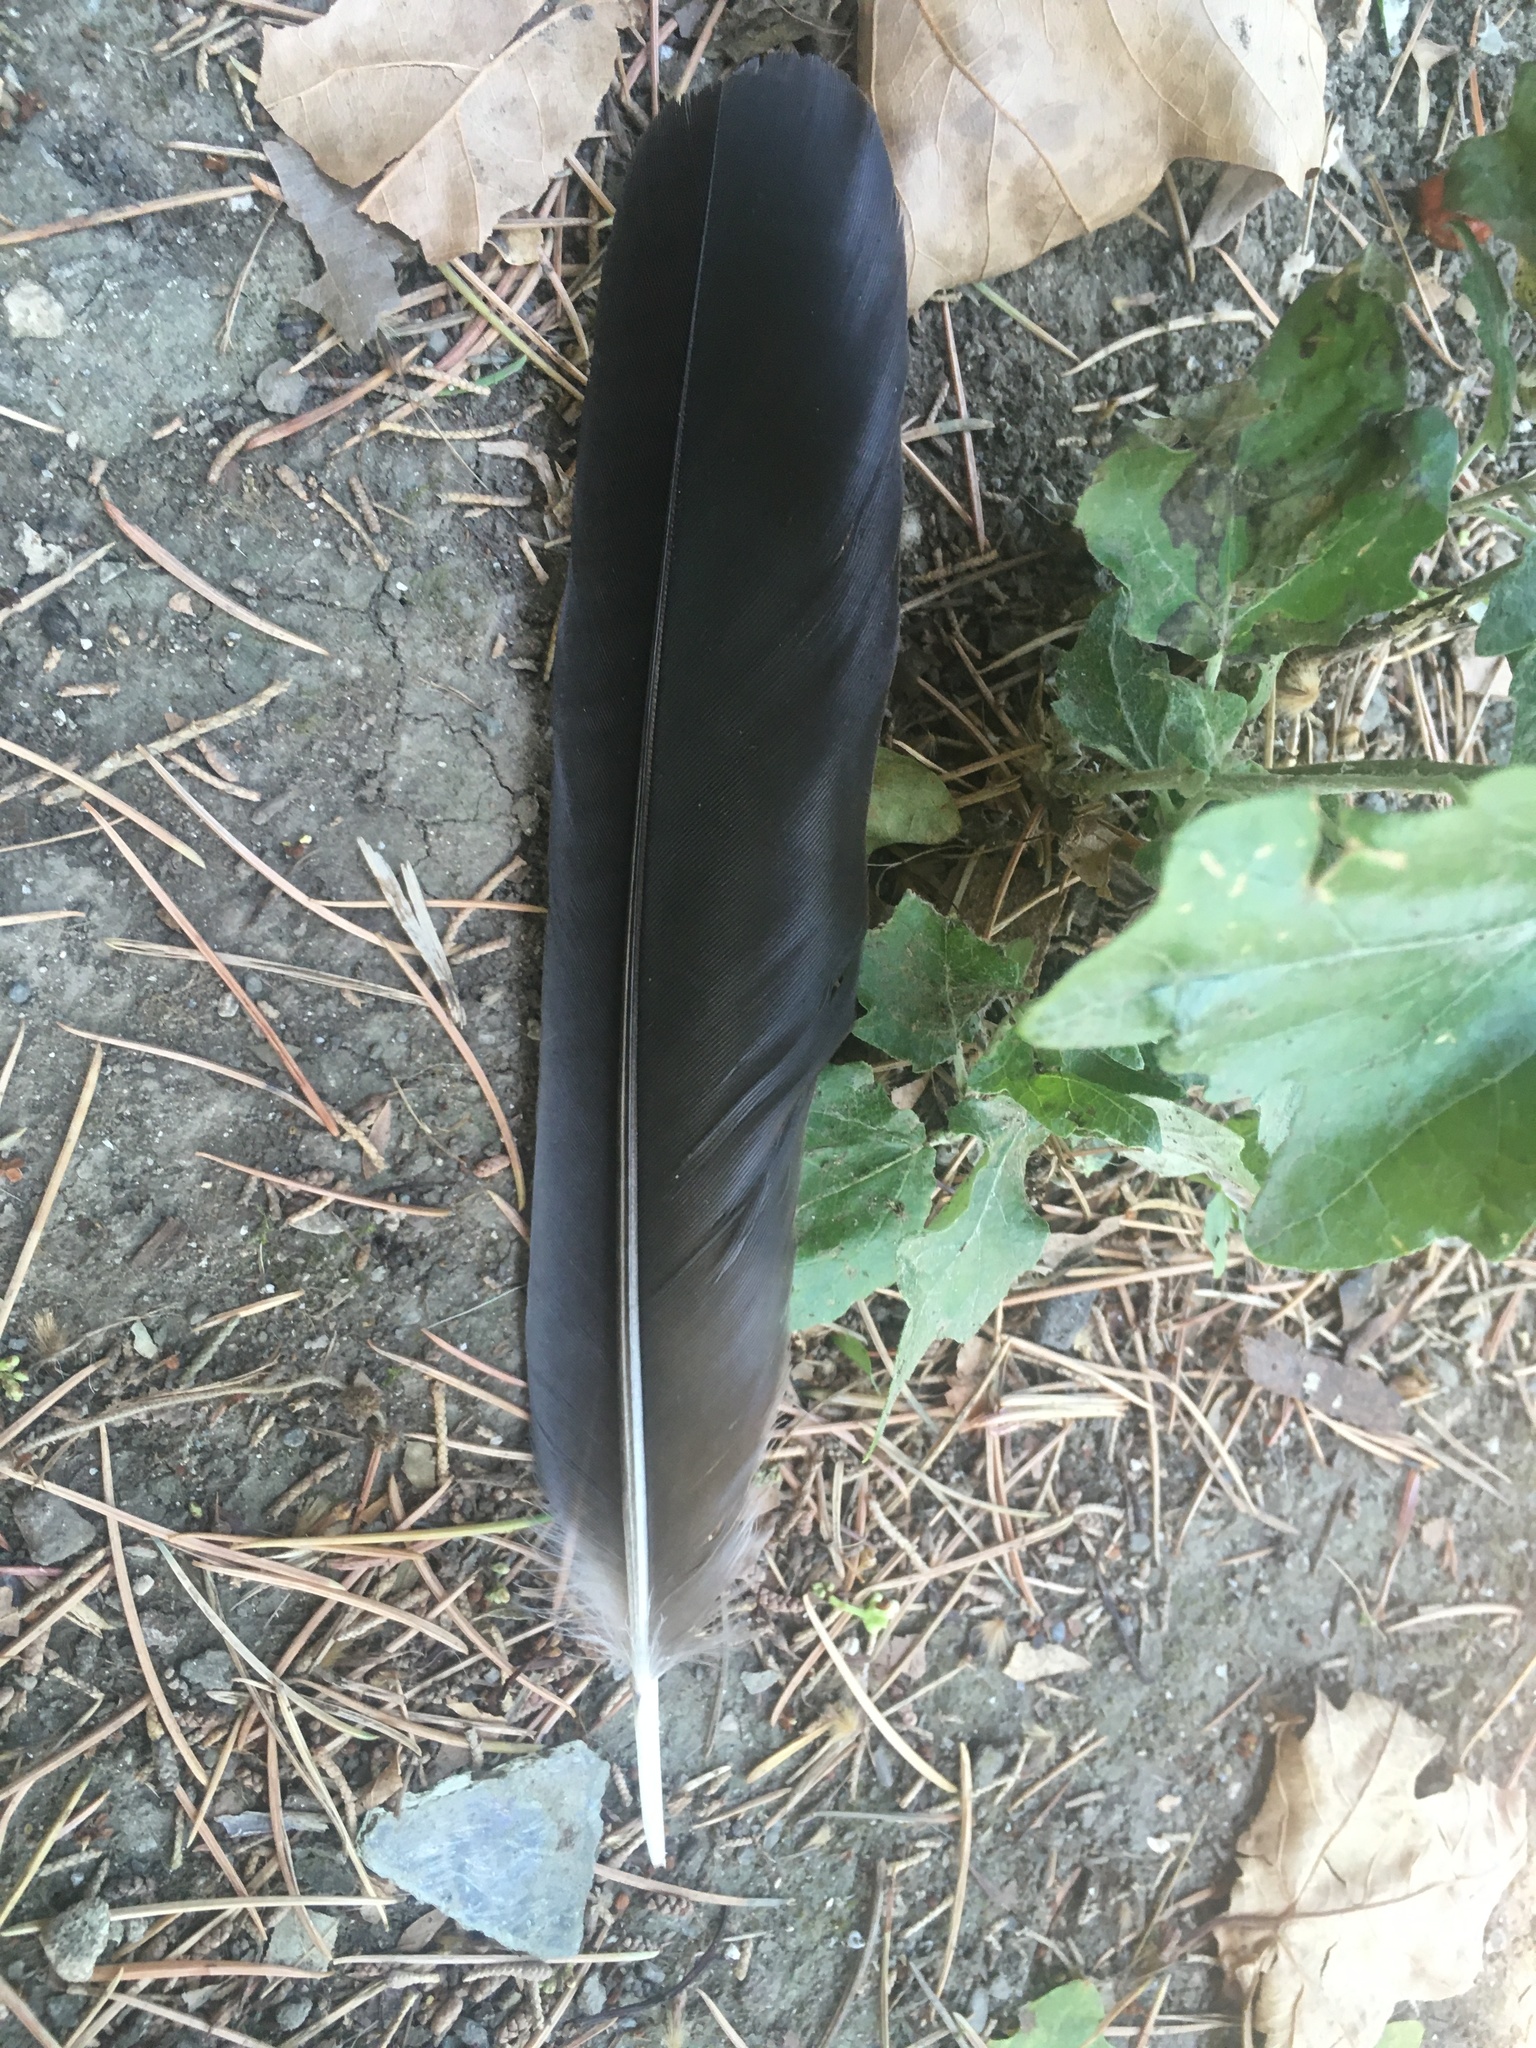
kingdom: Animalia
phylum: Chordata
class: Aves
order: Passeriformes
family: Corvidae
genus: Corvus
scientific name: Corvus cornix
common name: Hooded crow
